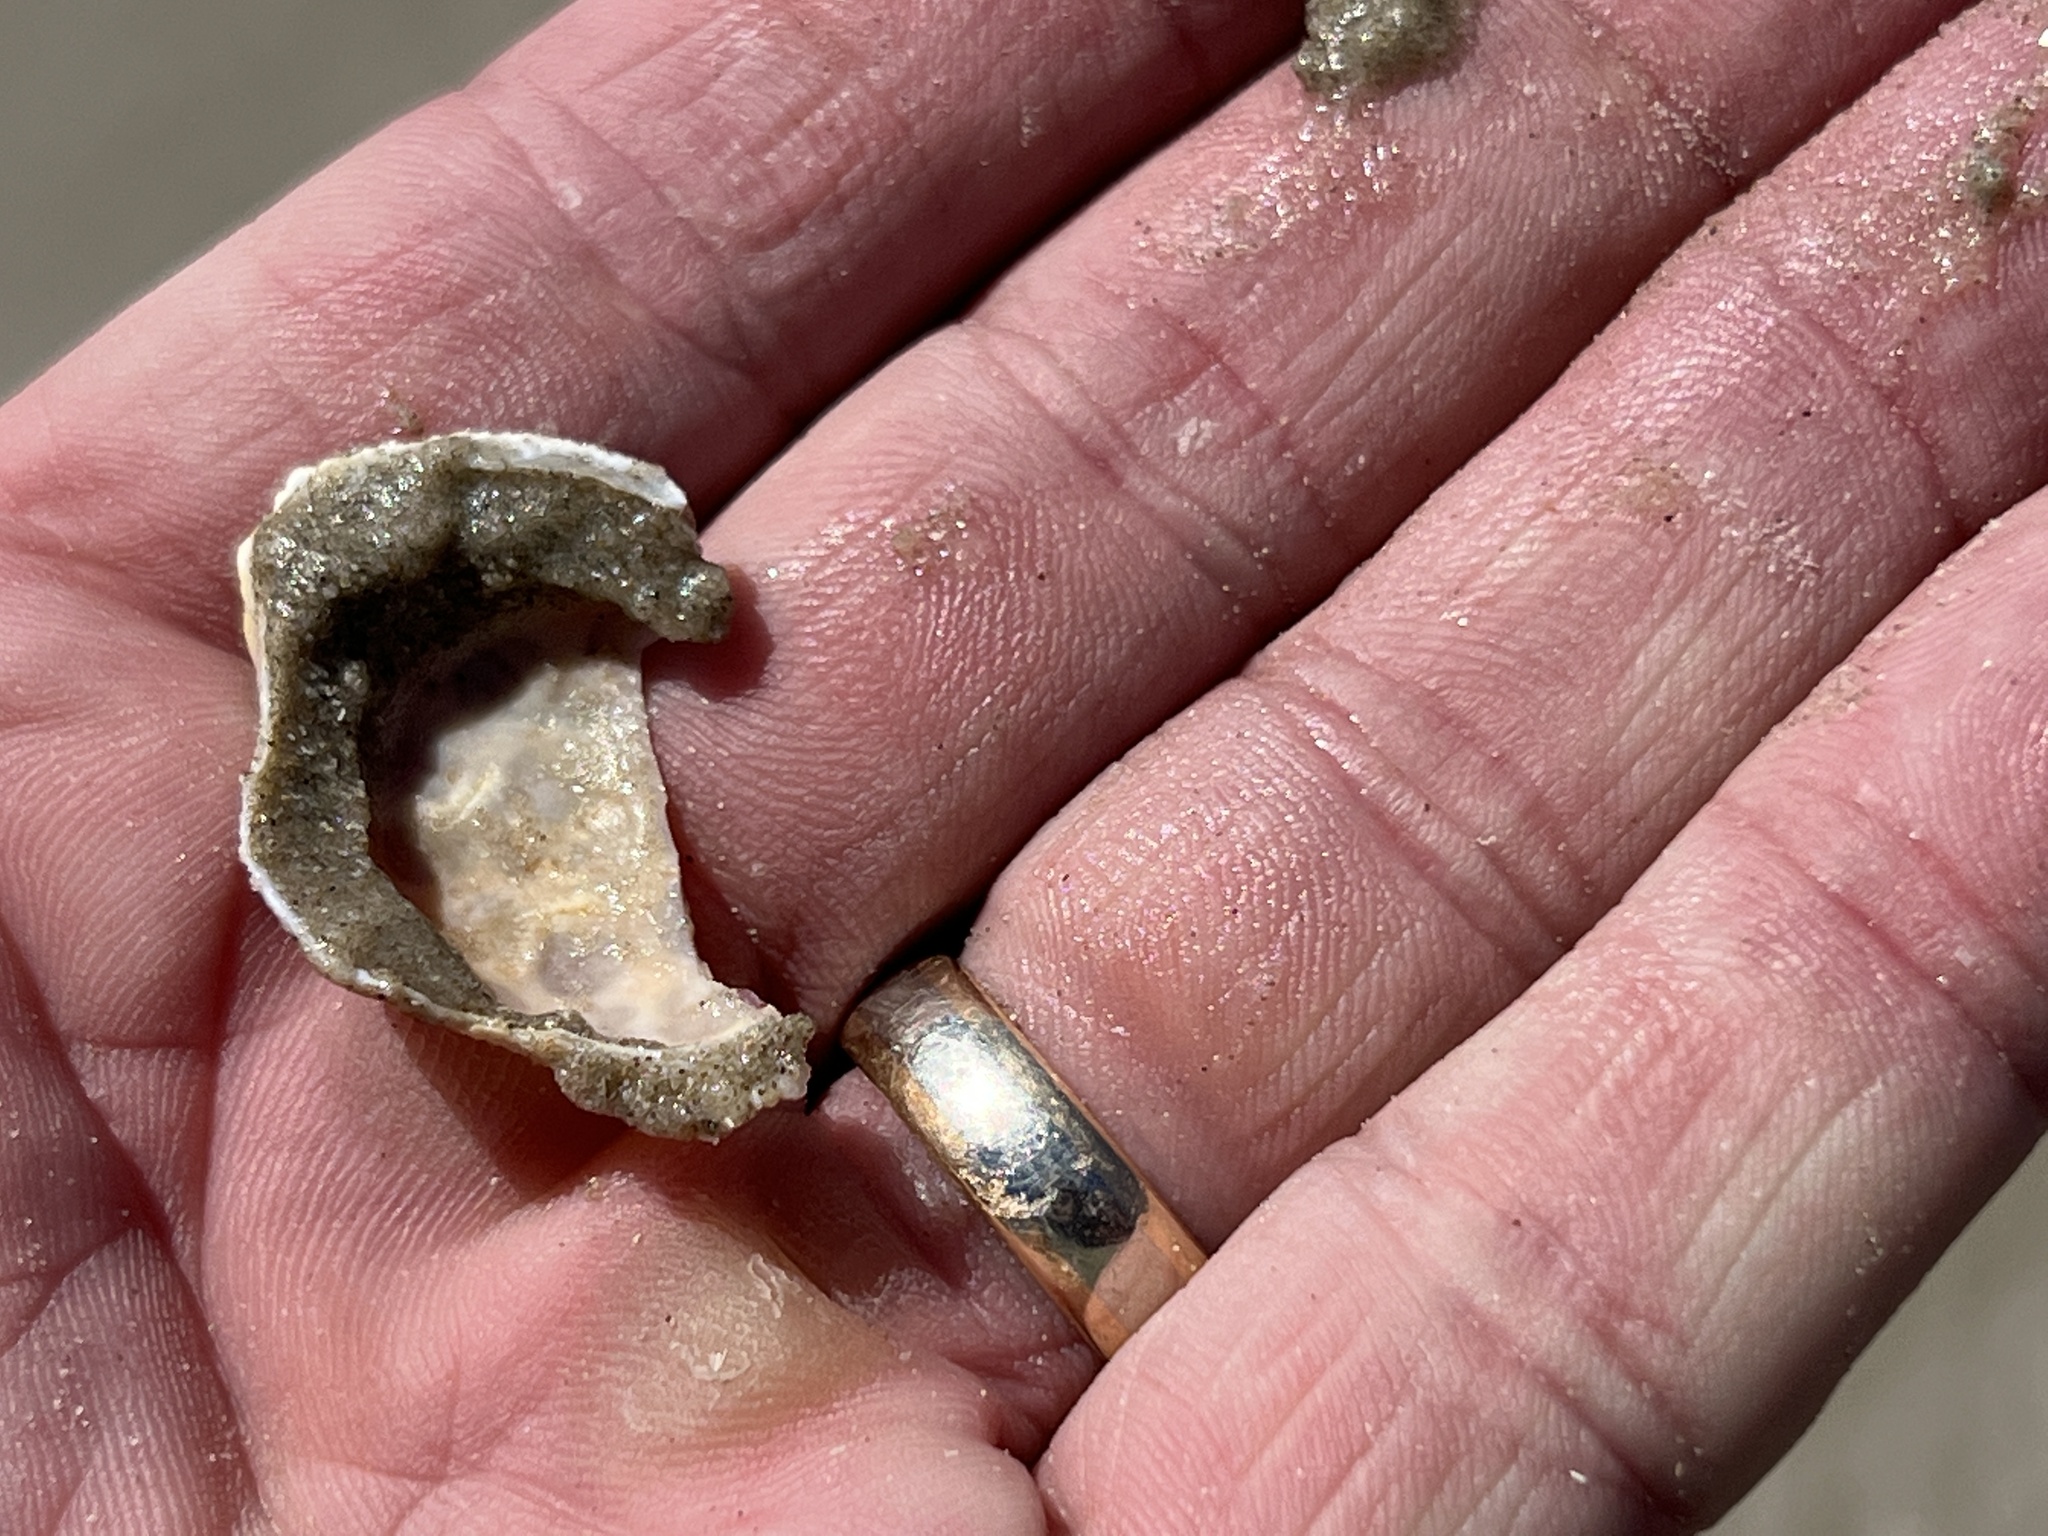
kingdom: Animalia
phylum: Arthropoda
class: Malacostraca
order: Decapoda
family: Aethridae
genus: Hepatus
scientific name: Hepatus epheliticus
